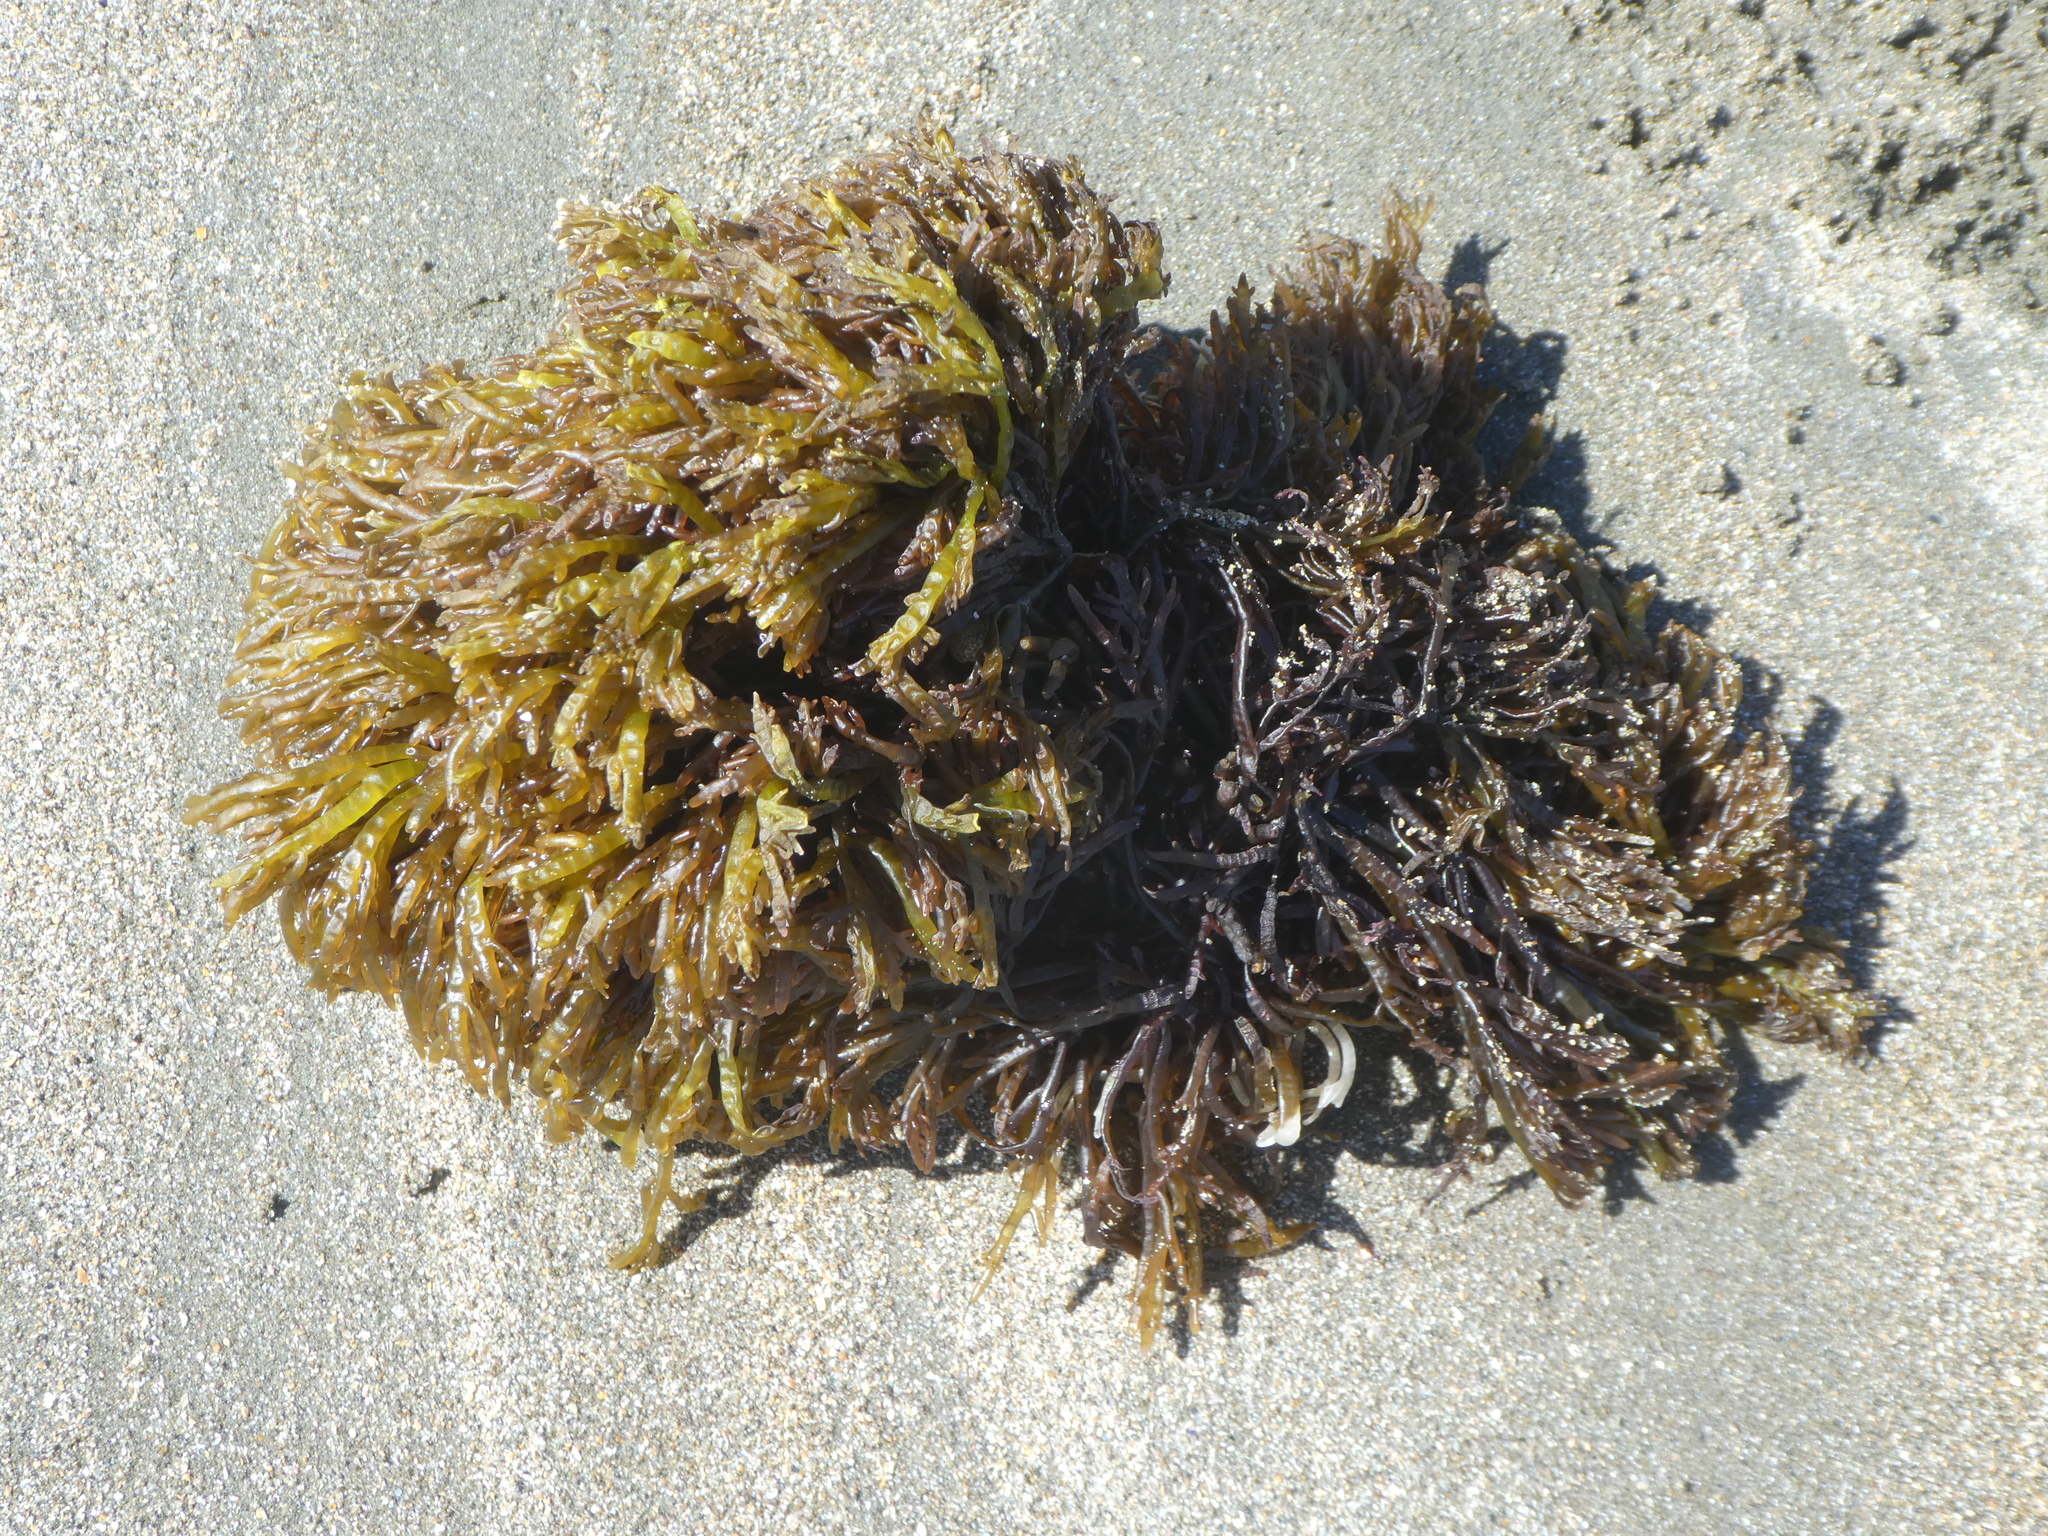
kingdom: Plantae
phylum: Rhodophyta
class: Florideophyceae
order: Rhodymeniales
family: Champiaceae
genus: Champia
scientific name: Champia novae-zelandiae
